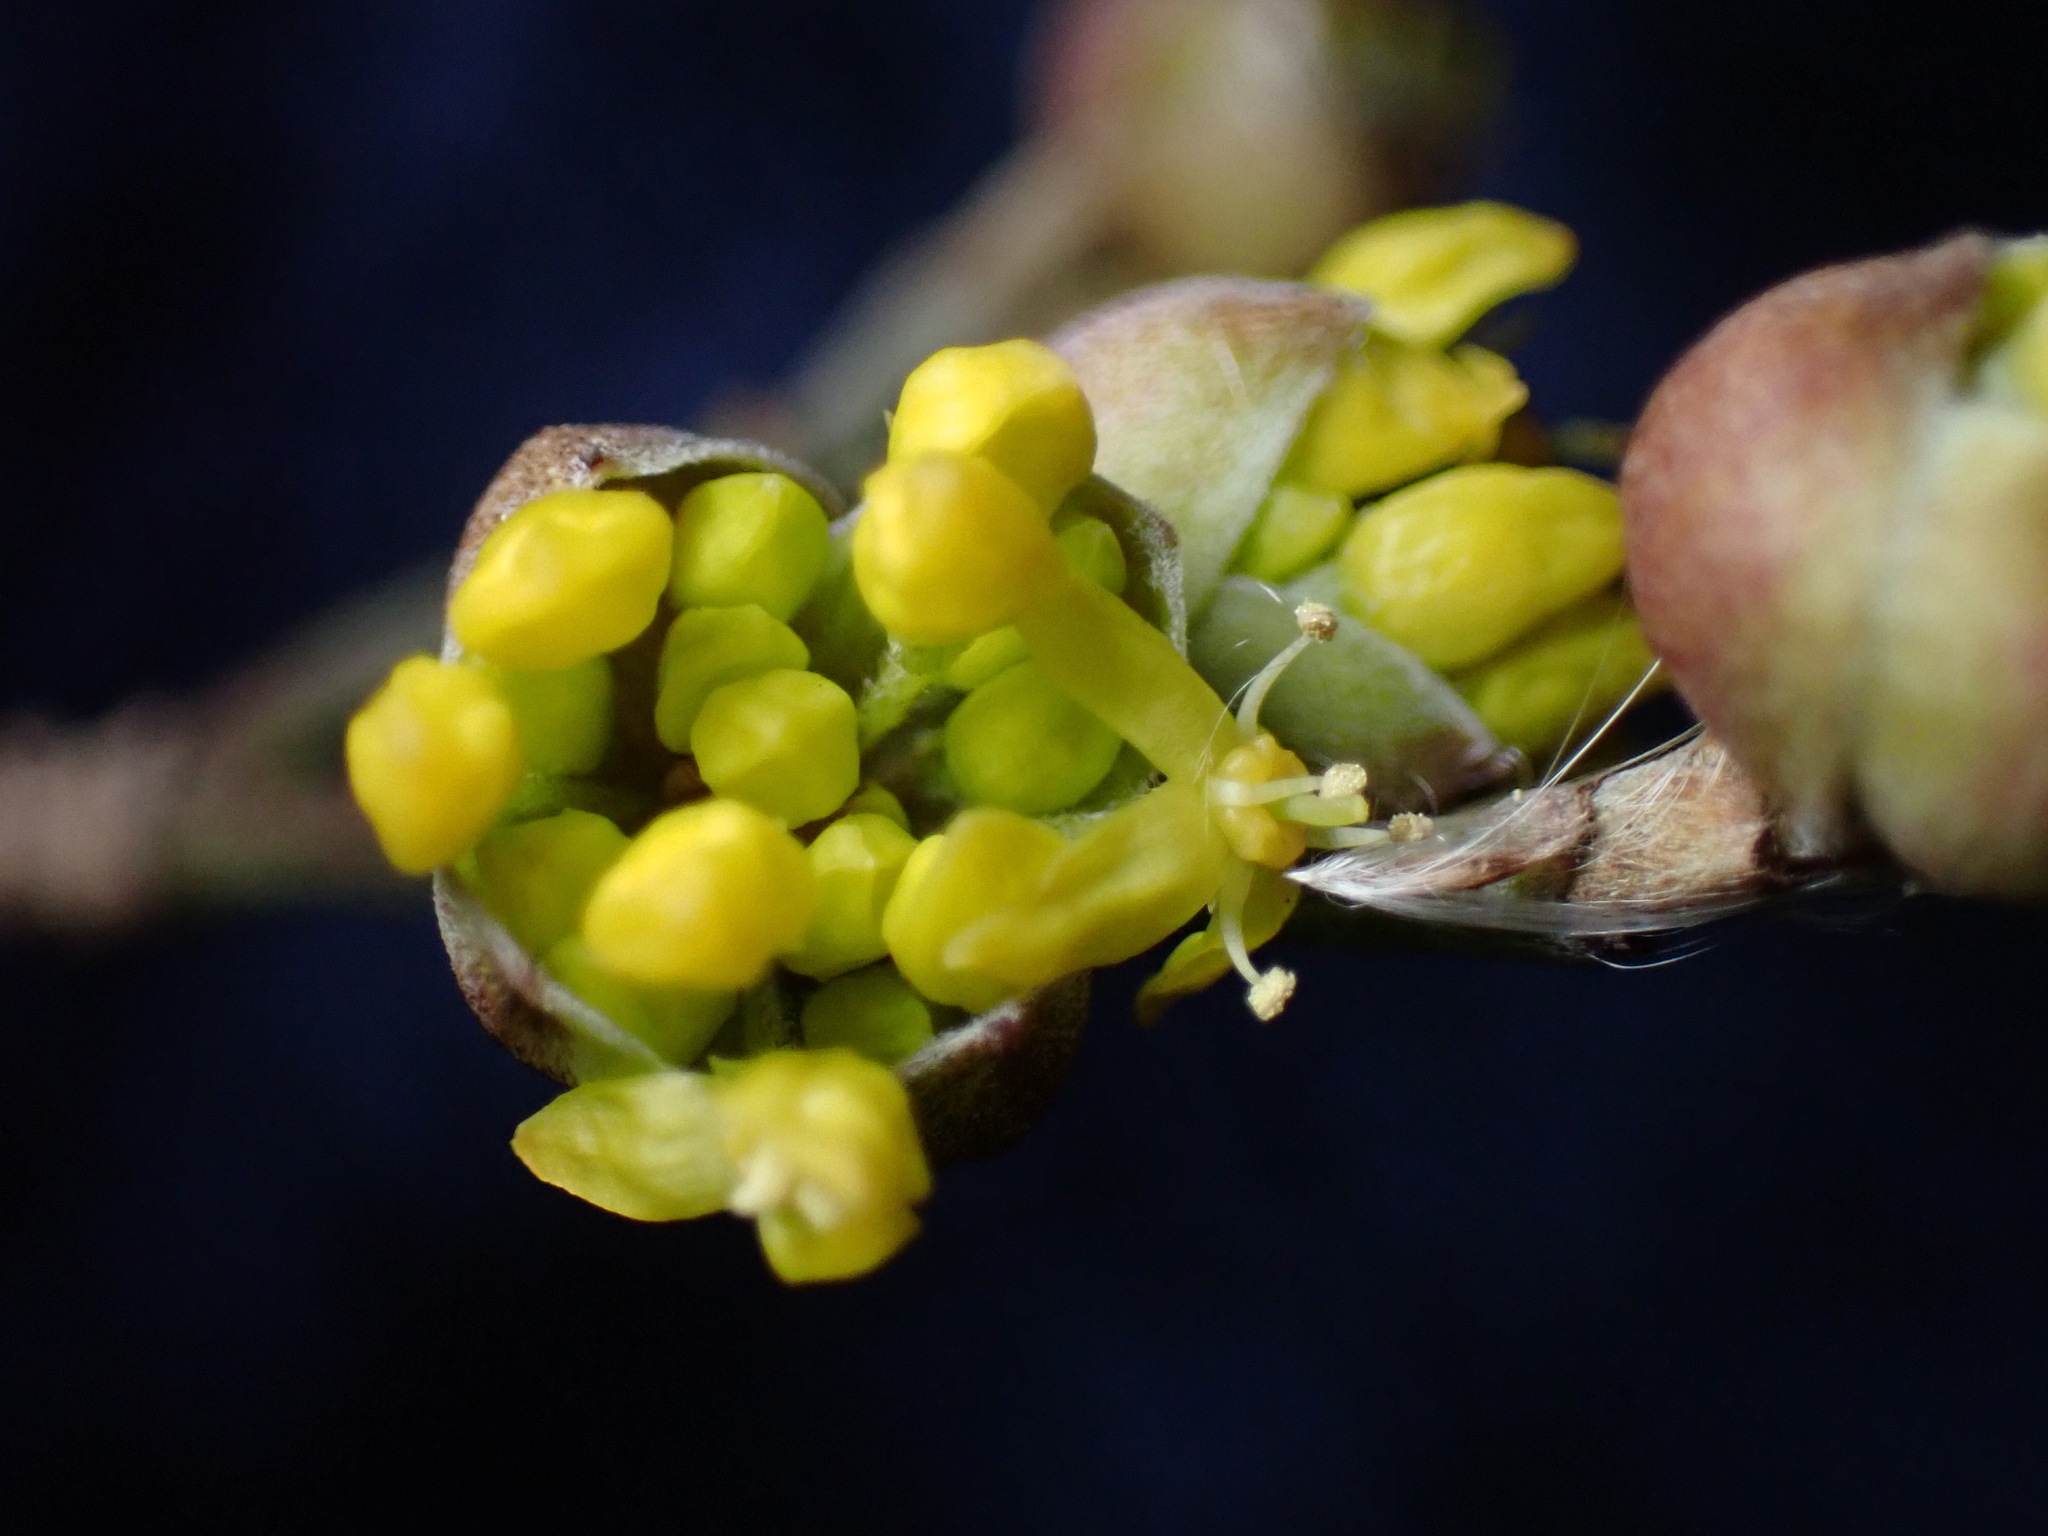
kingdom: Plantae
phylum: Tracheophyta
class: Magnoliopsida
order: Cornales
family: Cornaceae
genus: Cornus
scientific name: Cornus officinalis
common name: Asiatic dogwood
